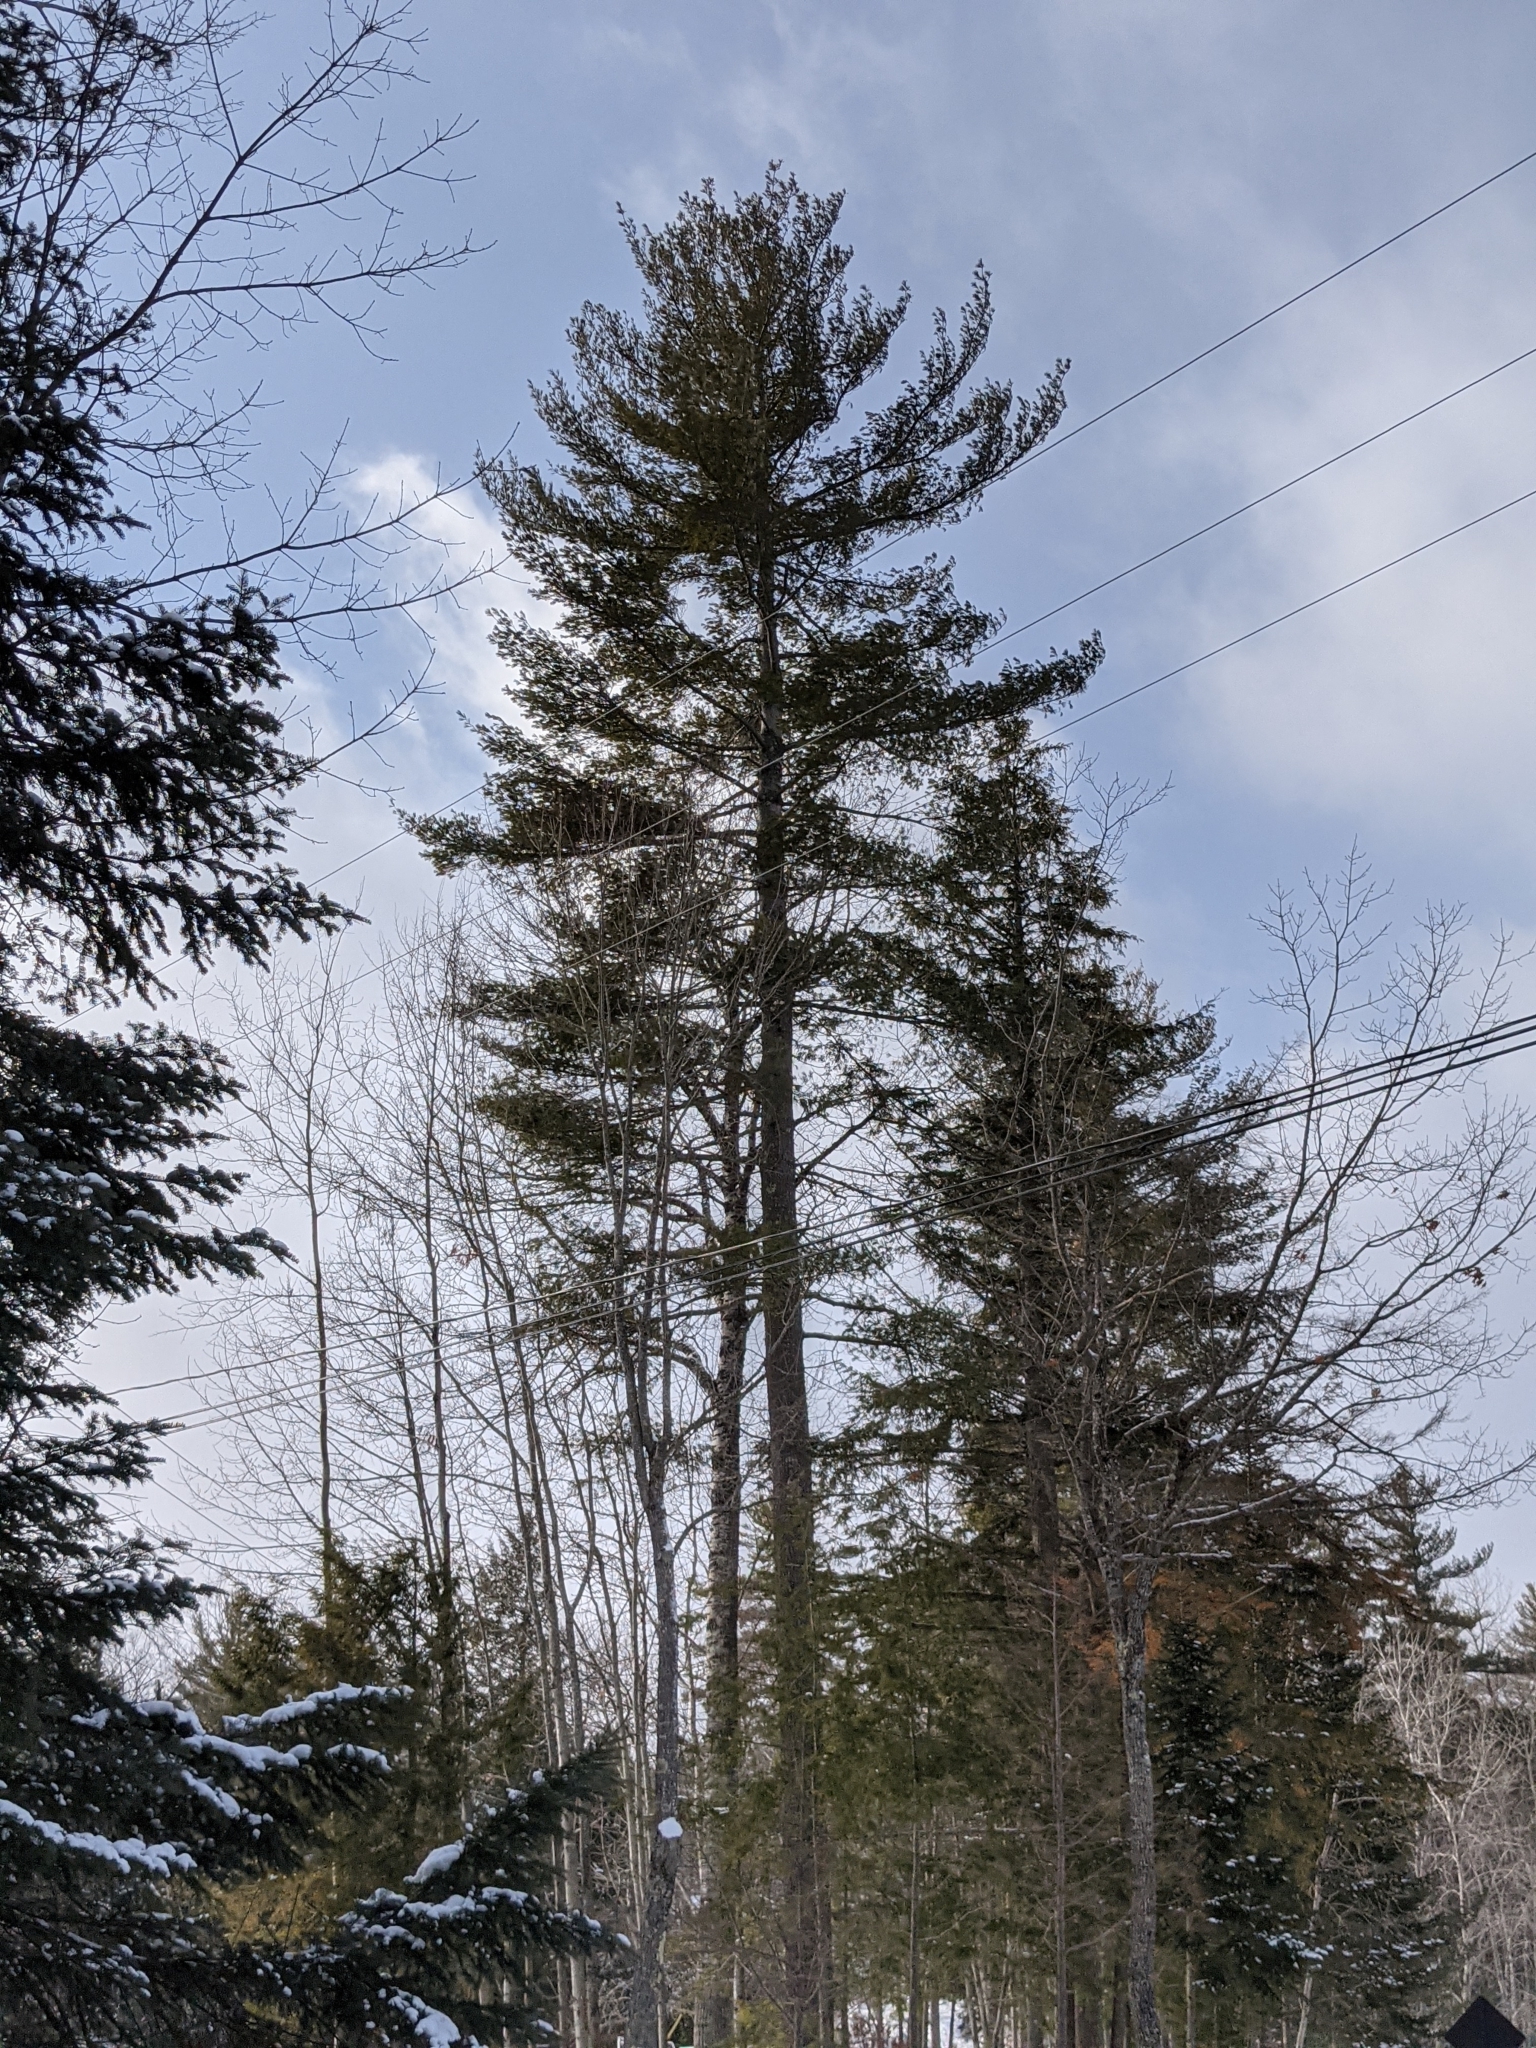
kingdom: Plantae
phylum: Tracheophyta
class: Pinopsida
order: Pinales
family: Pinaceae
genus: Pinus
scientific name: Pinus strobus
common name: Weymouth pine
